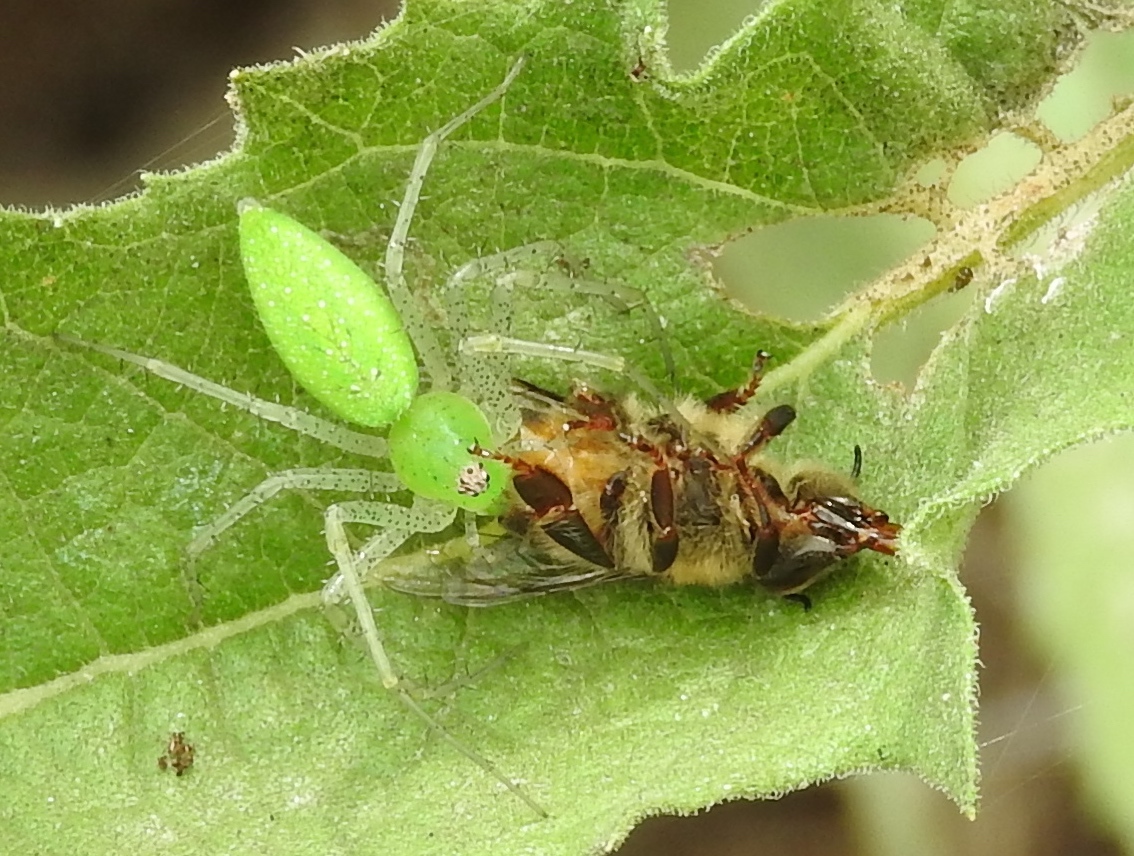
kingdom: Animalia
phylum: Arthropoda
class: Arachnida
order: Araneae
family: Oxyopidae
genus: Peucetia
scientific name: Peucetia longipalpis
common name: Lynx spiders
